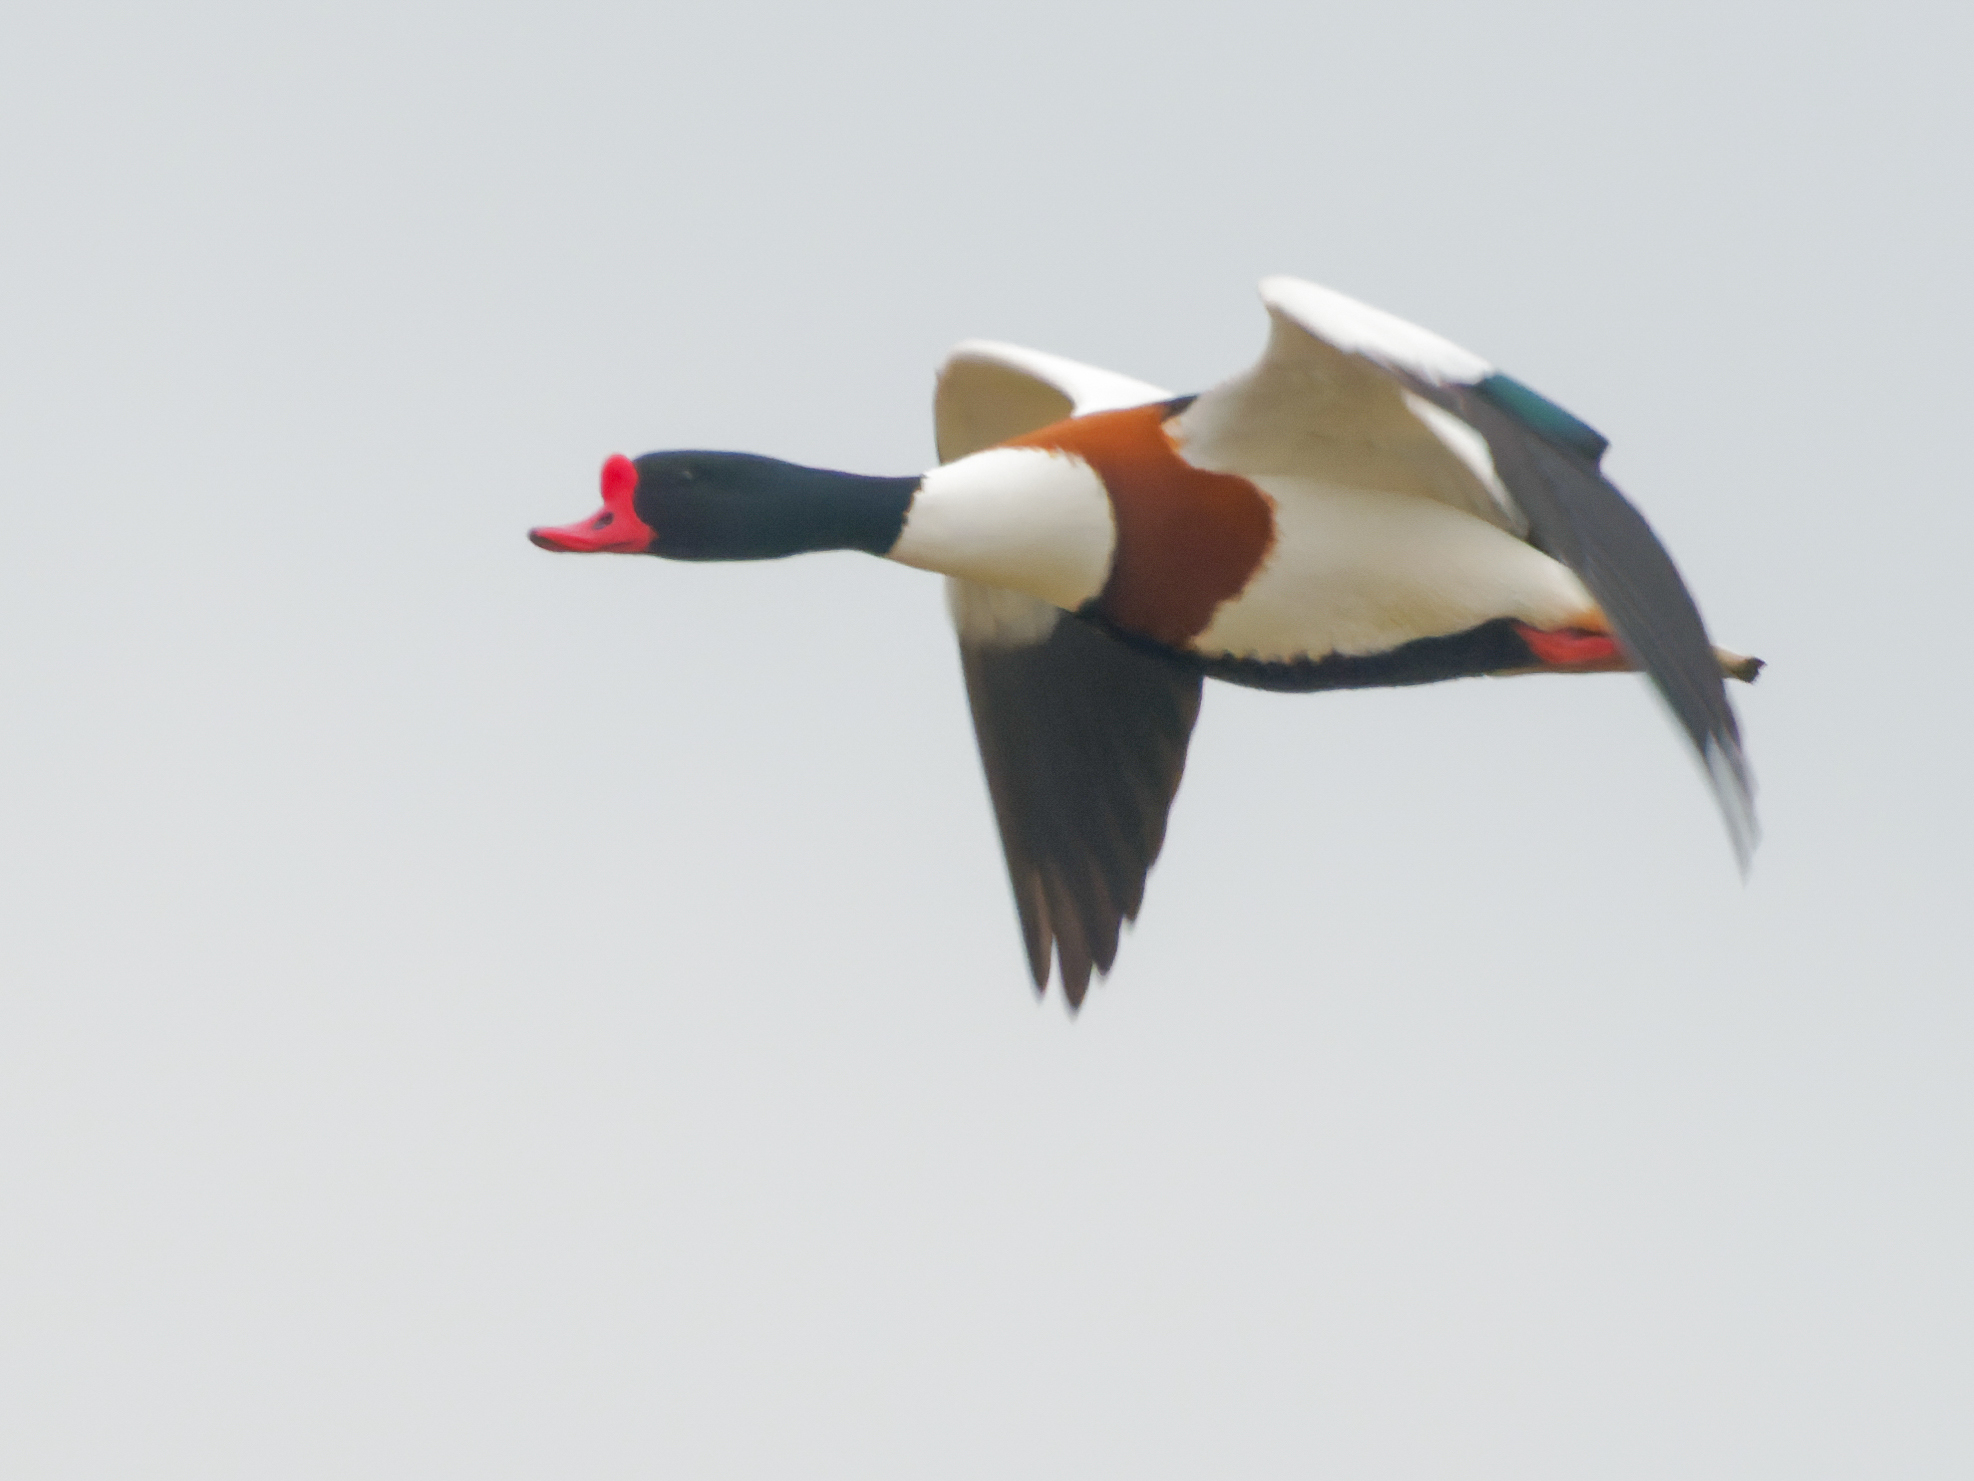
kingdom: Animalia
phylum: Chordata
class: Aves
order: Anseriformes
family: Anatidae
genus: Tadorna
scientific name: Tadorna tadorna
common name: Common shelduck
